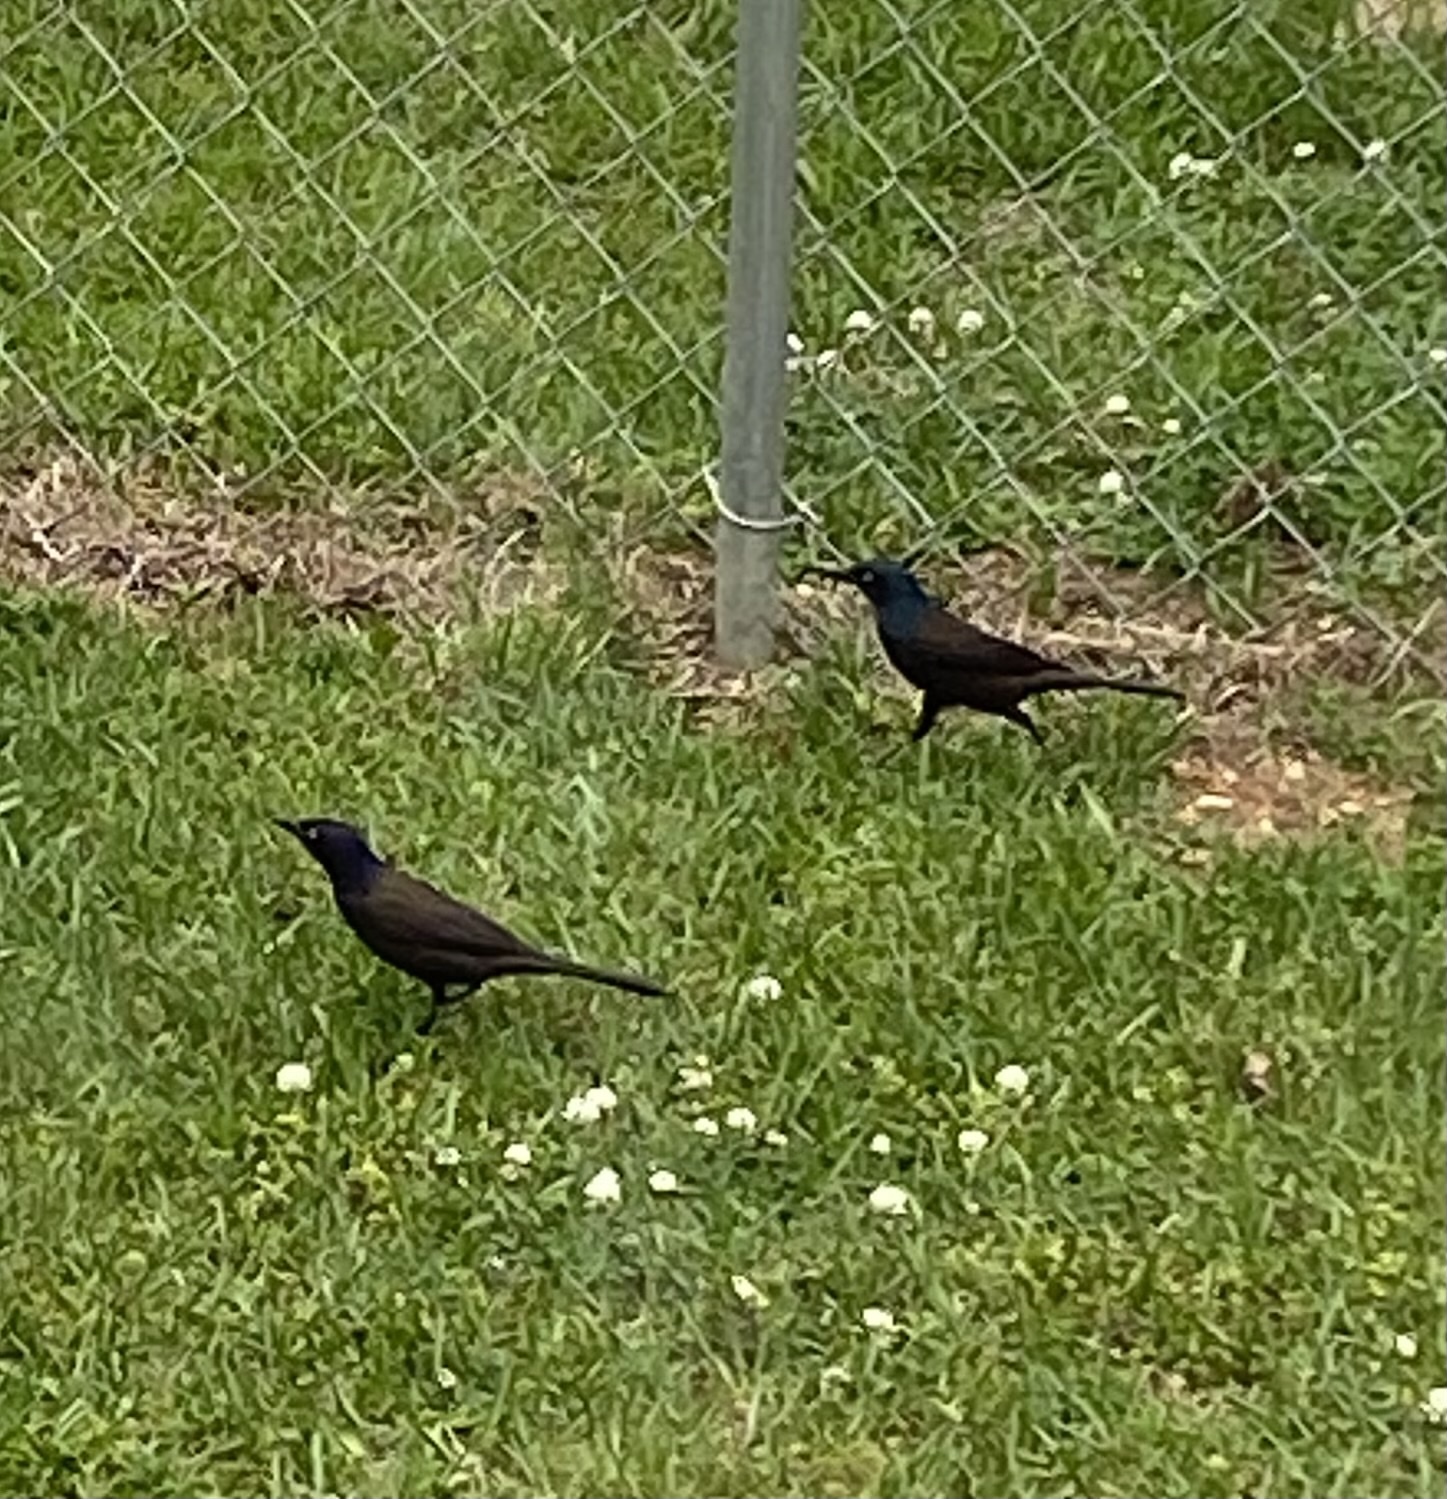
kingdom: Animalia
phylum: Chordata
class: Aves
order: Passeriformes
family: Icteridae
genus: Quiscalus
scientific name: Quiscalus quiscula
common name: Common grackle
